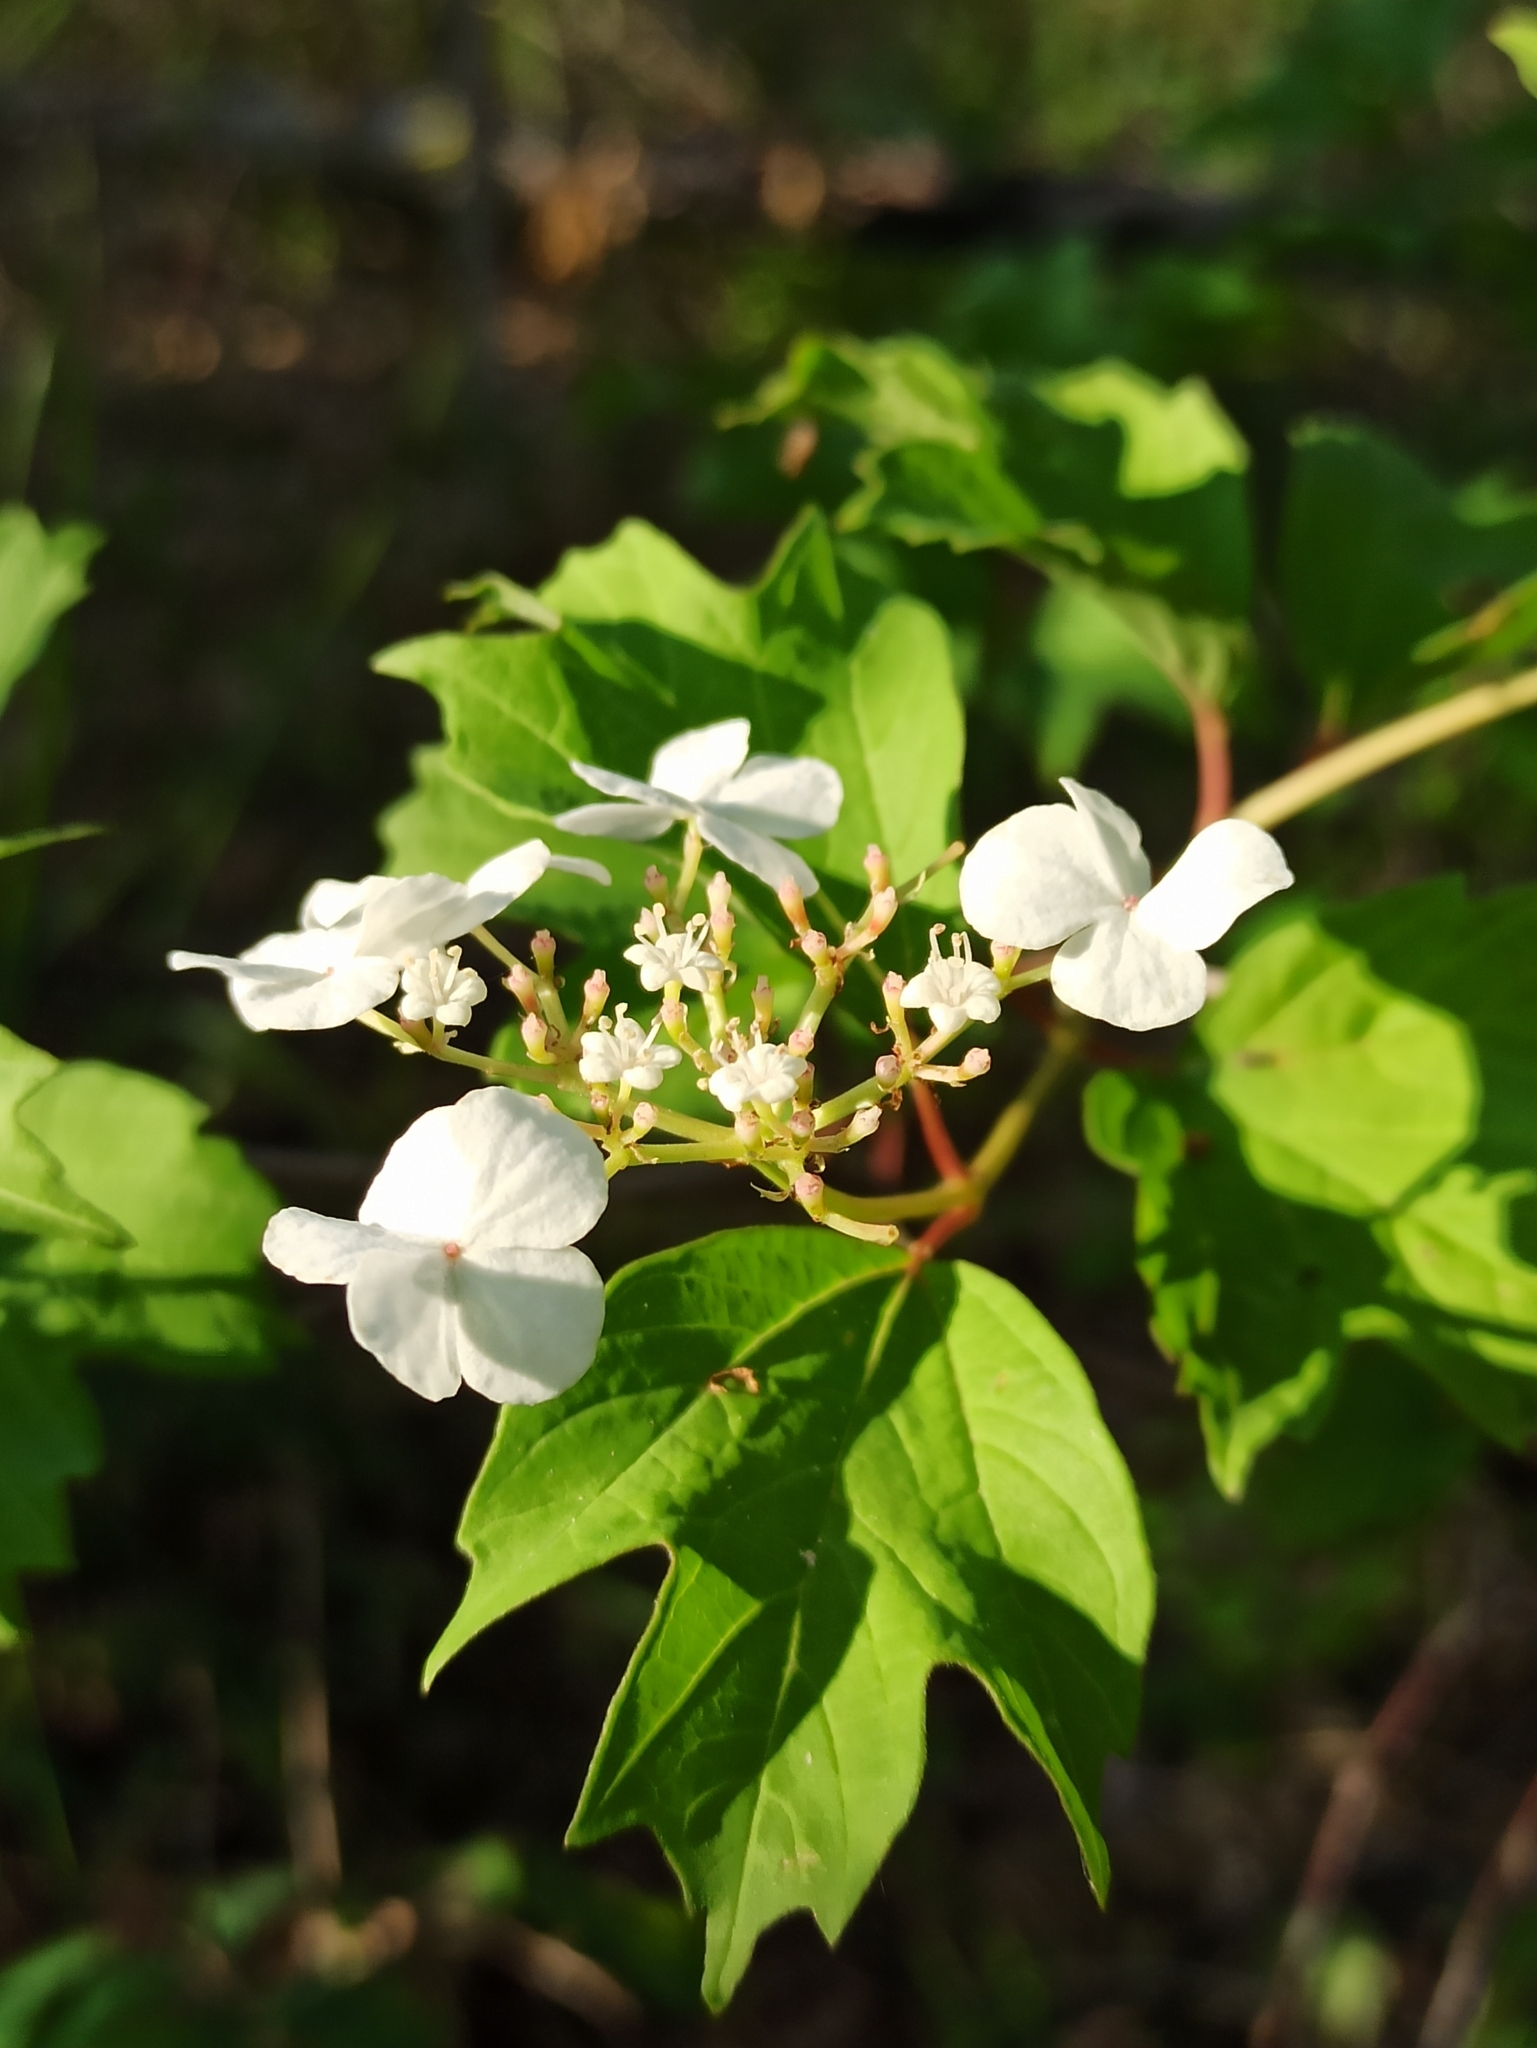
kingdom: Plantae
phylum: Tracheophyta
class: Magnoliopsida
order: Dipsacales
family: Viburnaceae
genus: Viburnum
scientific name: Viburnum opulus
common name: Guelder-rose
